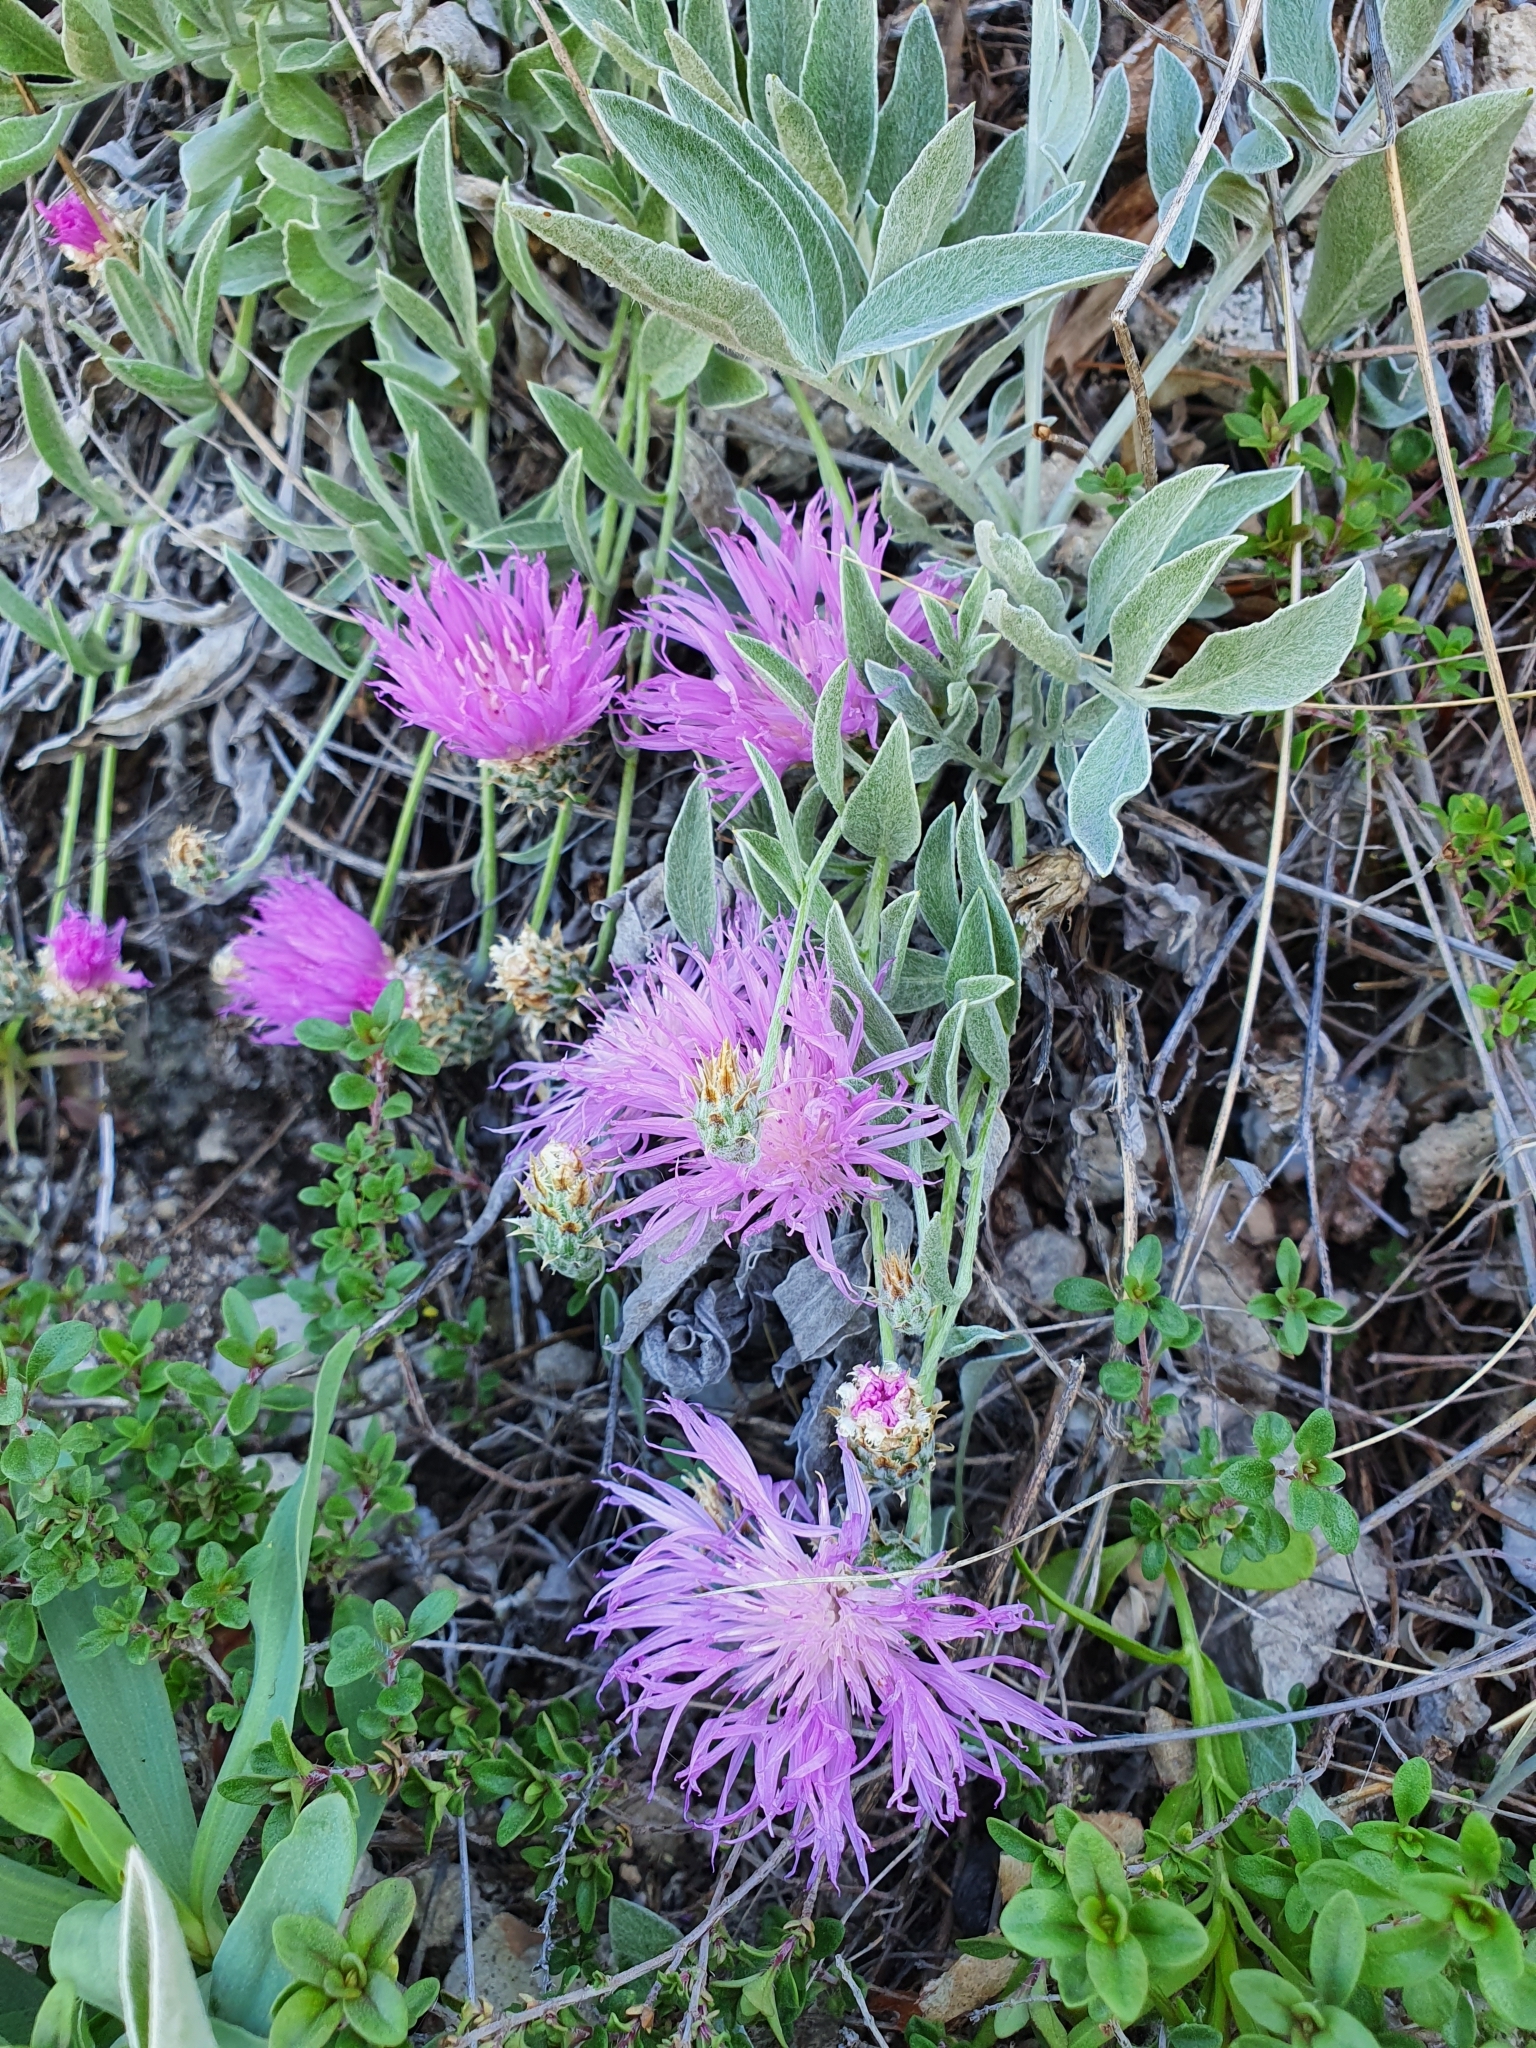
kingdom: Plantae
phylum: Tracheophyta
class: Magnoliopsida
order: Asterales
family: Asteraceae
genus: Psephellus
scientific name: Psephellus sumensis
